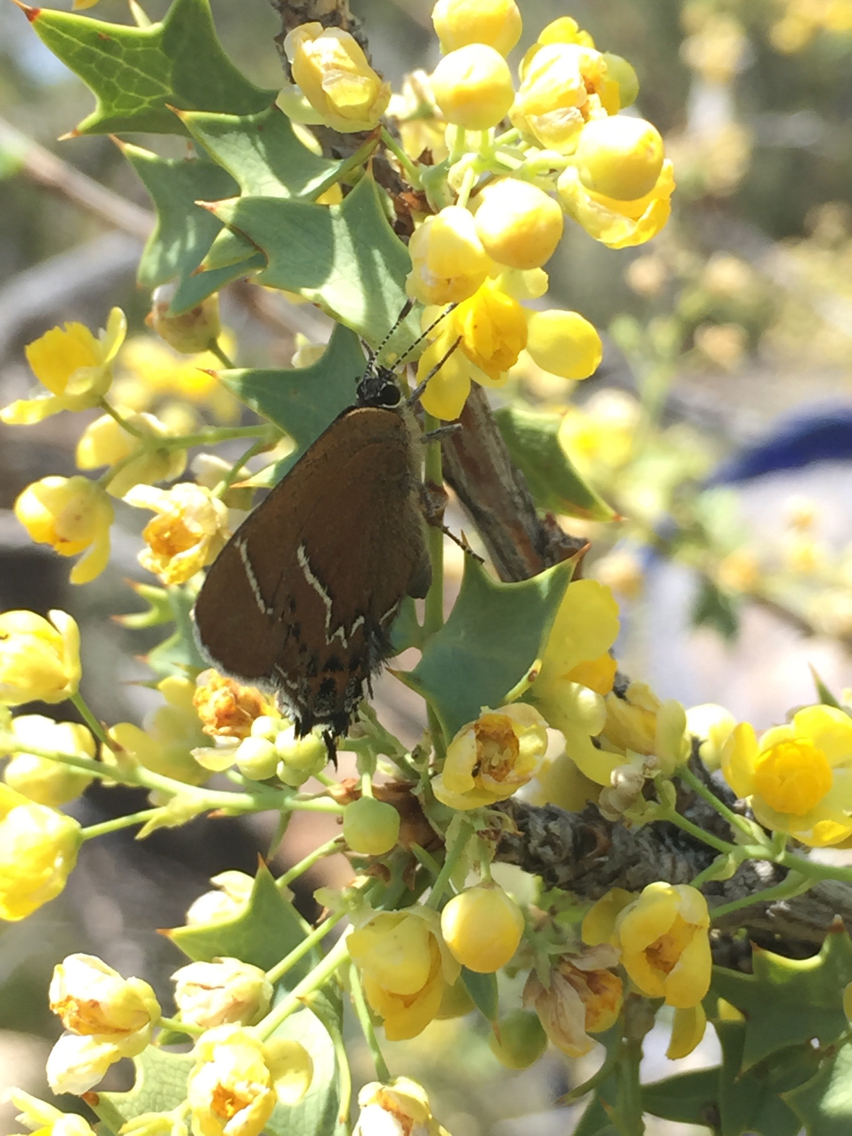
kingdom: Animalia
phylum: Arthropoda
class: Insecta
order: Lepidoptera
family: Lycaenidae
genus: Mitoura
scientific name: Mitoura spinetorum
